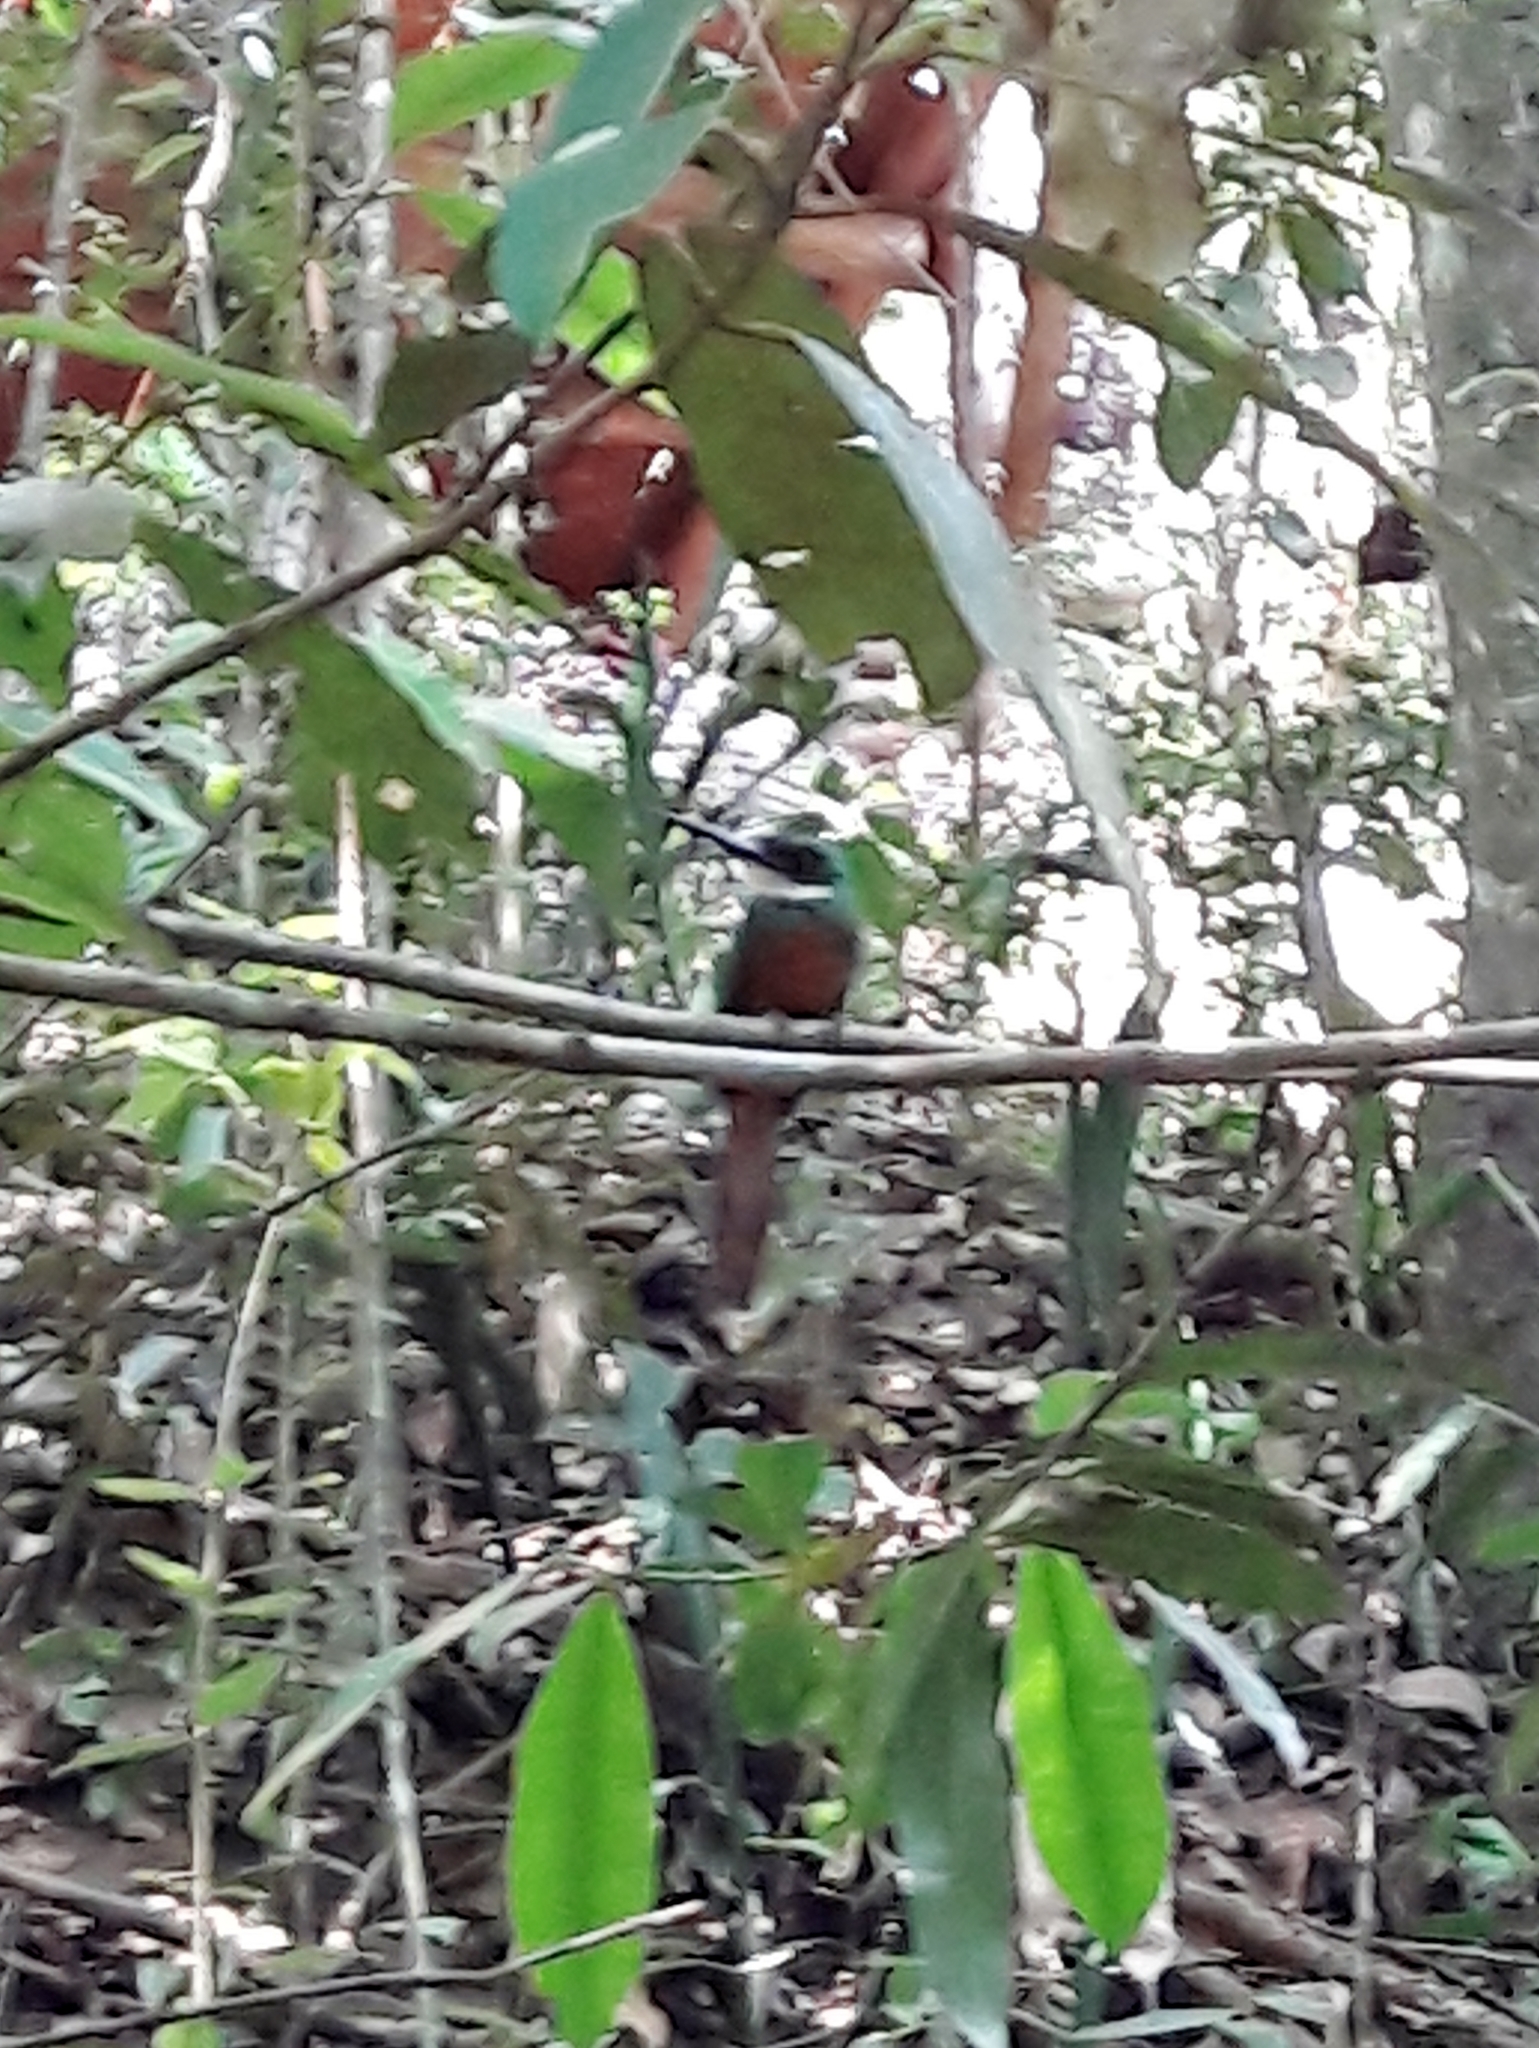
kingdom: Animalia
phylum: Chordata
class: Aves
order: Piciformes
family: Galbulidae
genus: Galbula
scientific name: Galbula ruficauda
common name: Rufous-tailed jacamar
